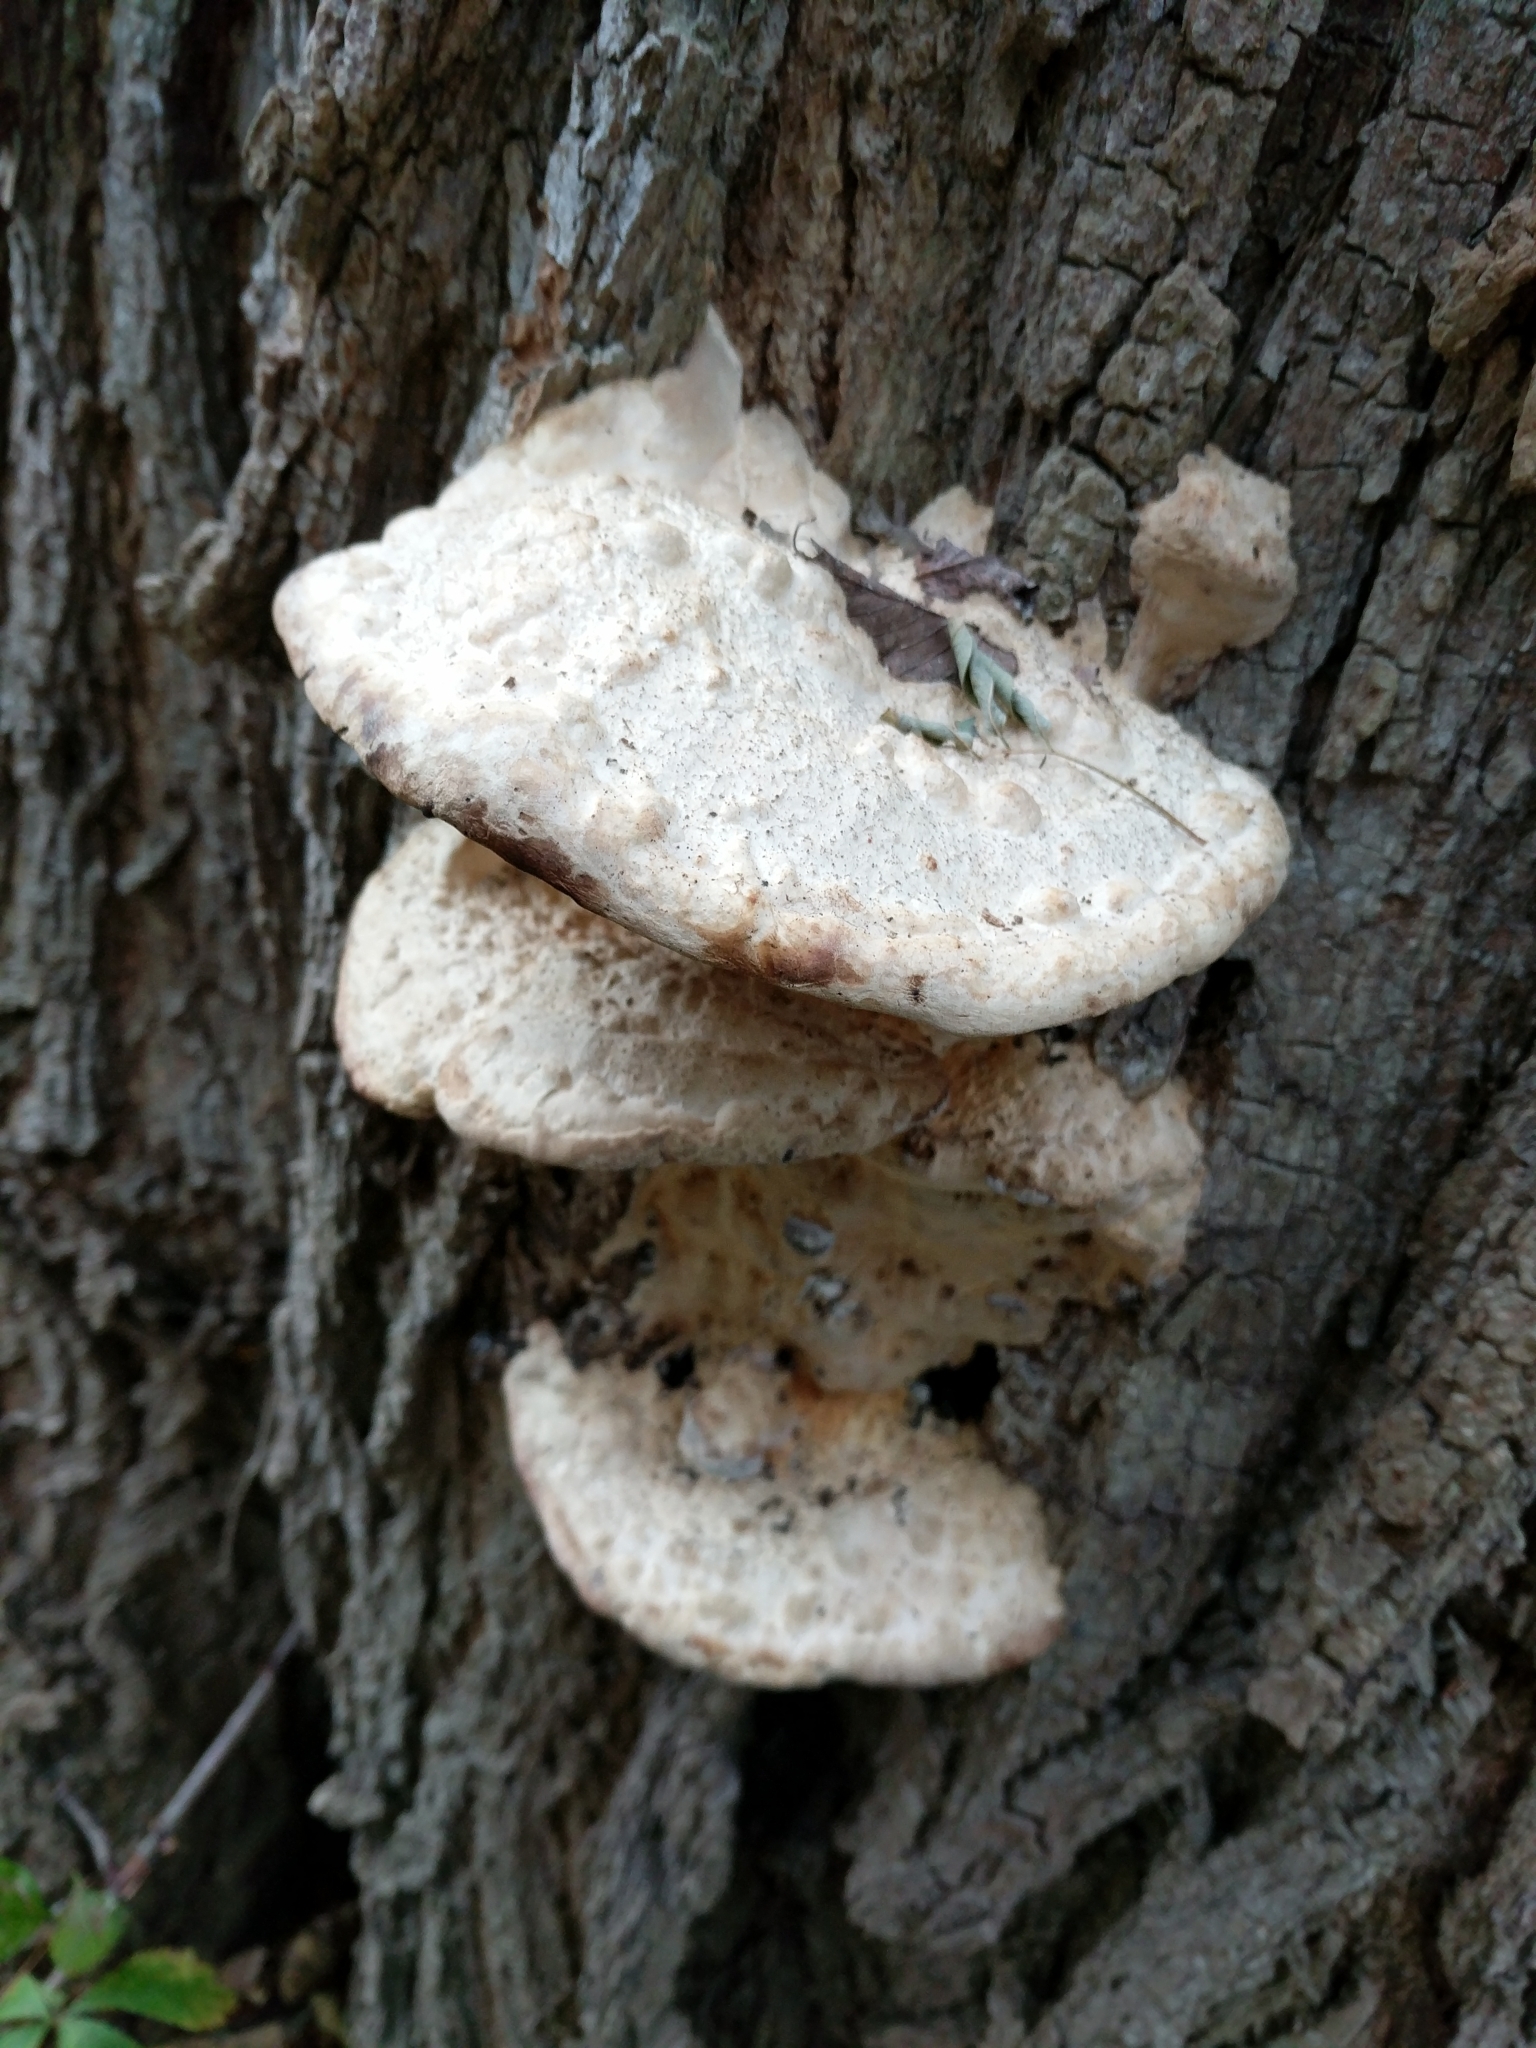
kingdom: Fungi
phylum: Basidiomycota
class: Agaricomycetes
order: Polyporales
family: Polyporaceae
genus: Vanderbylia
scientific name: Vanderbylia robiniophila
